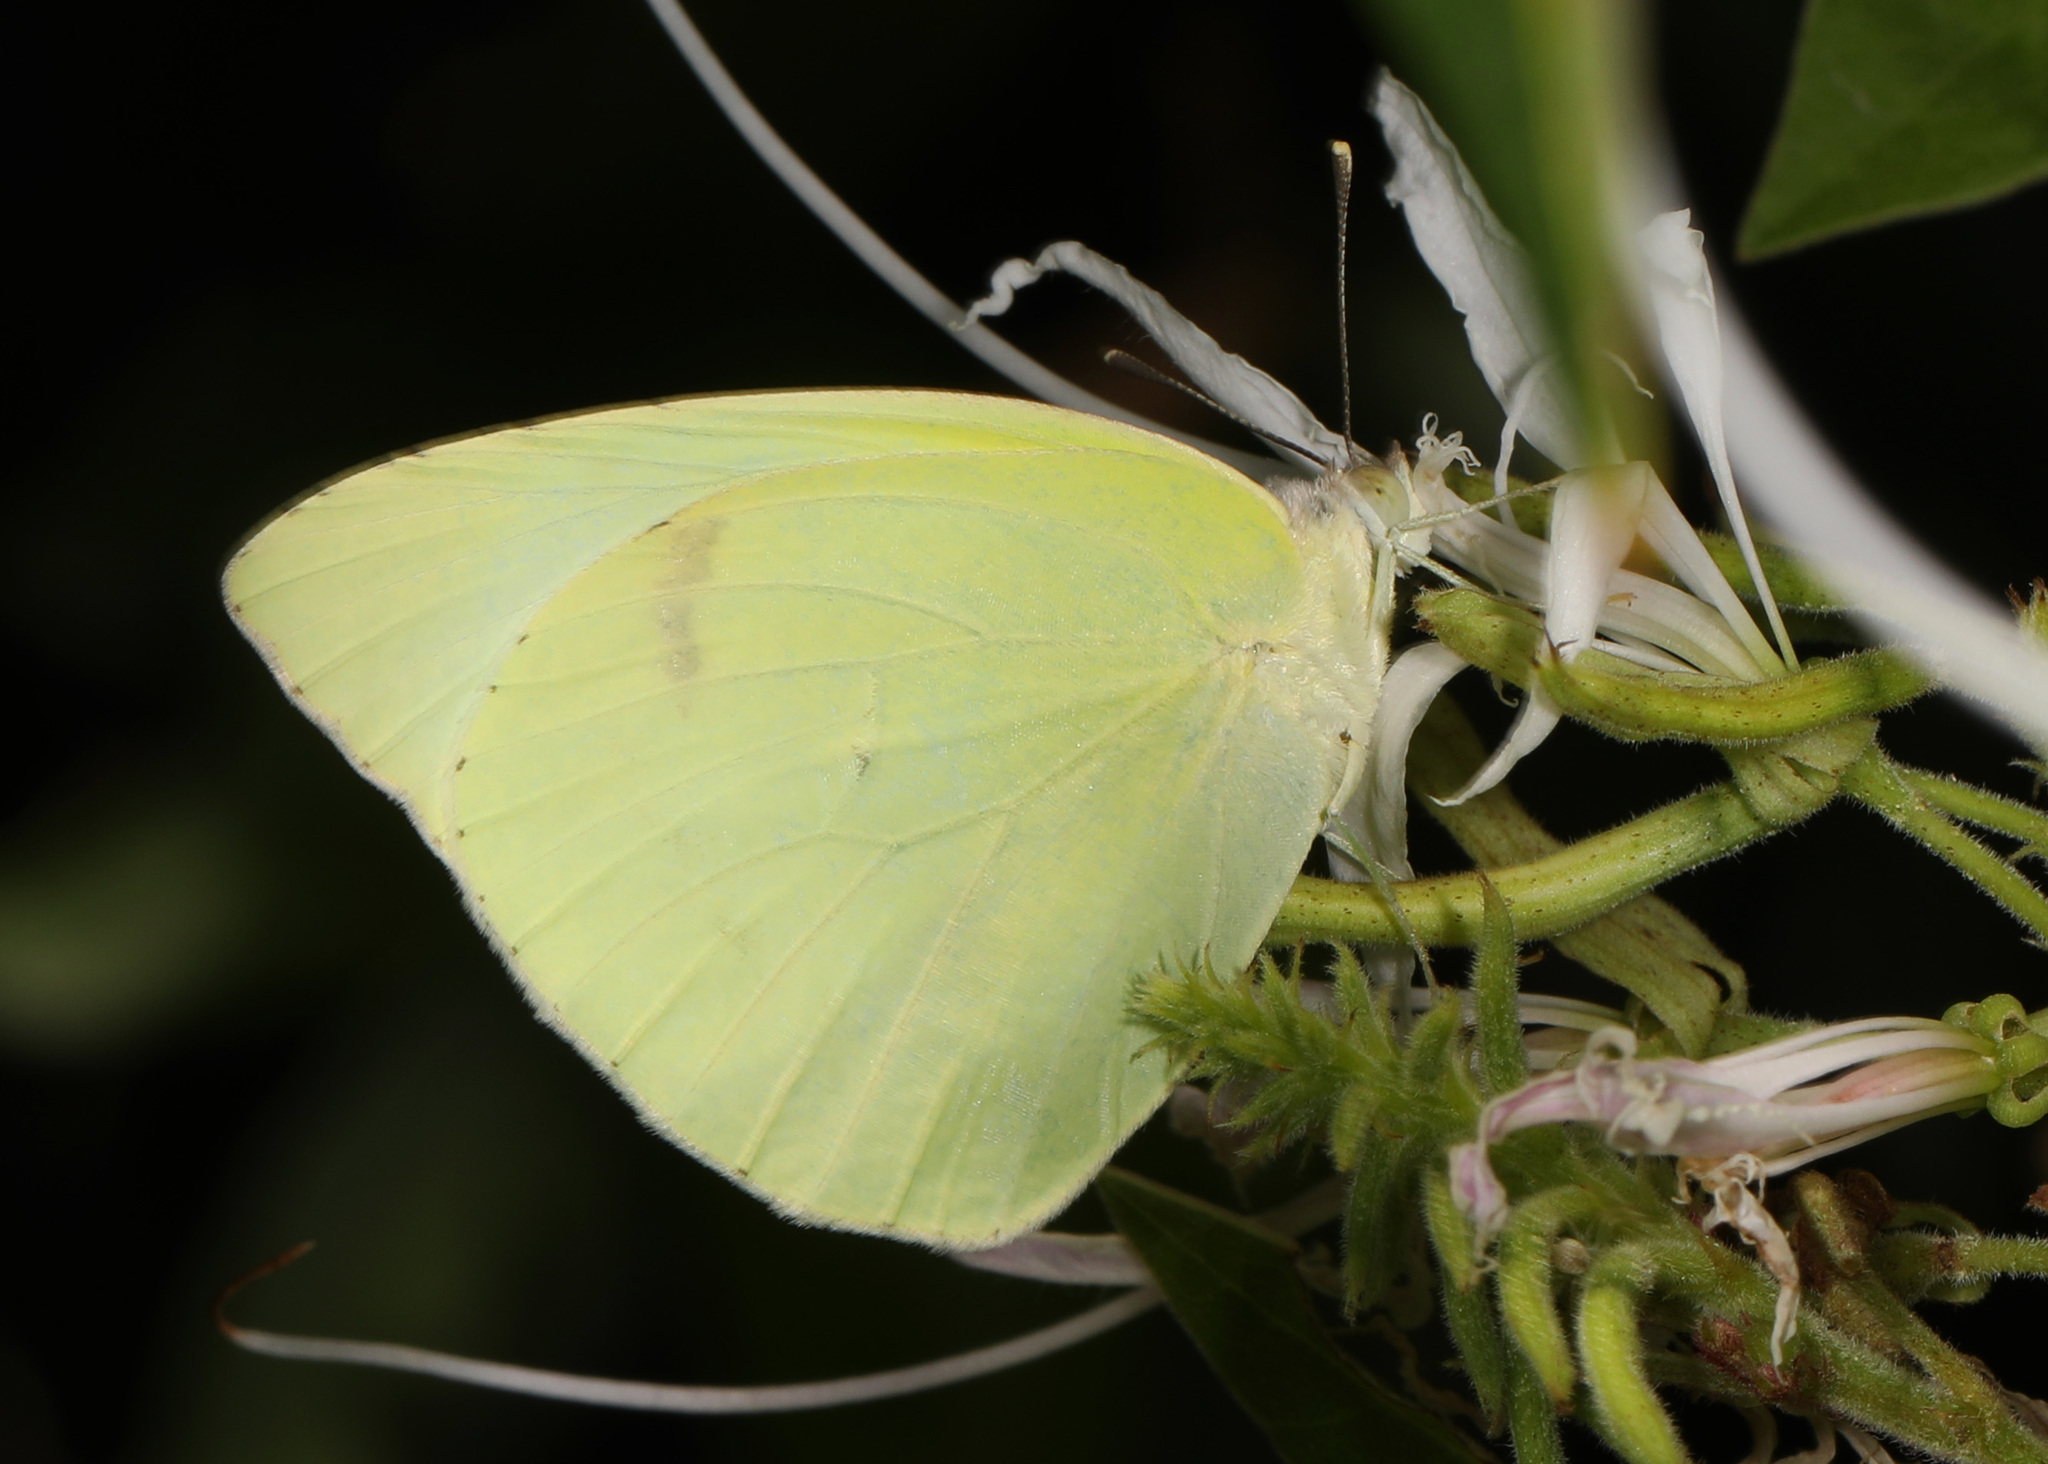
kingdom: Animalia
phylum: Arthropoda
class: Insecta
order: Lepidoptera
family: Pieridae
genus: Kricogonia
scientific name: Kricogonia lyside
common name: Guayacan sulphur,
